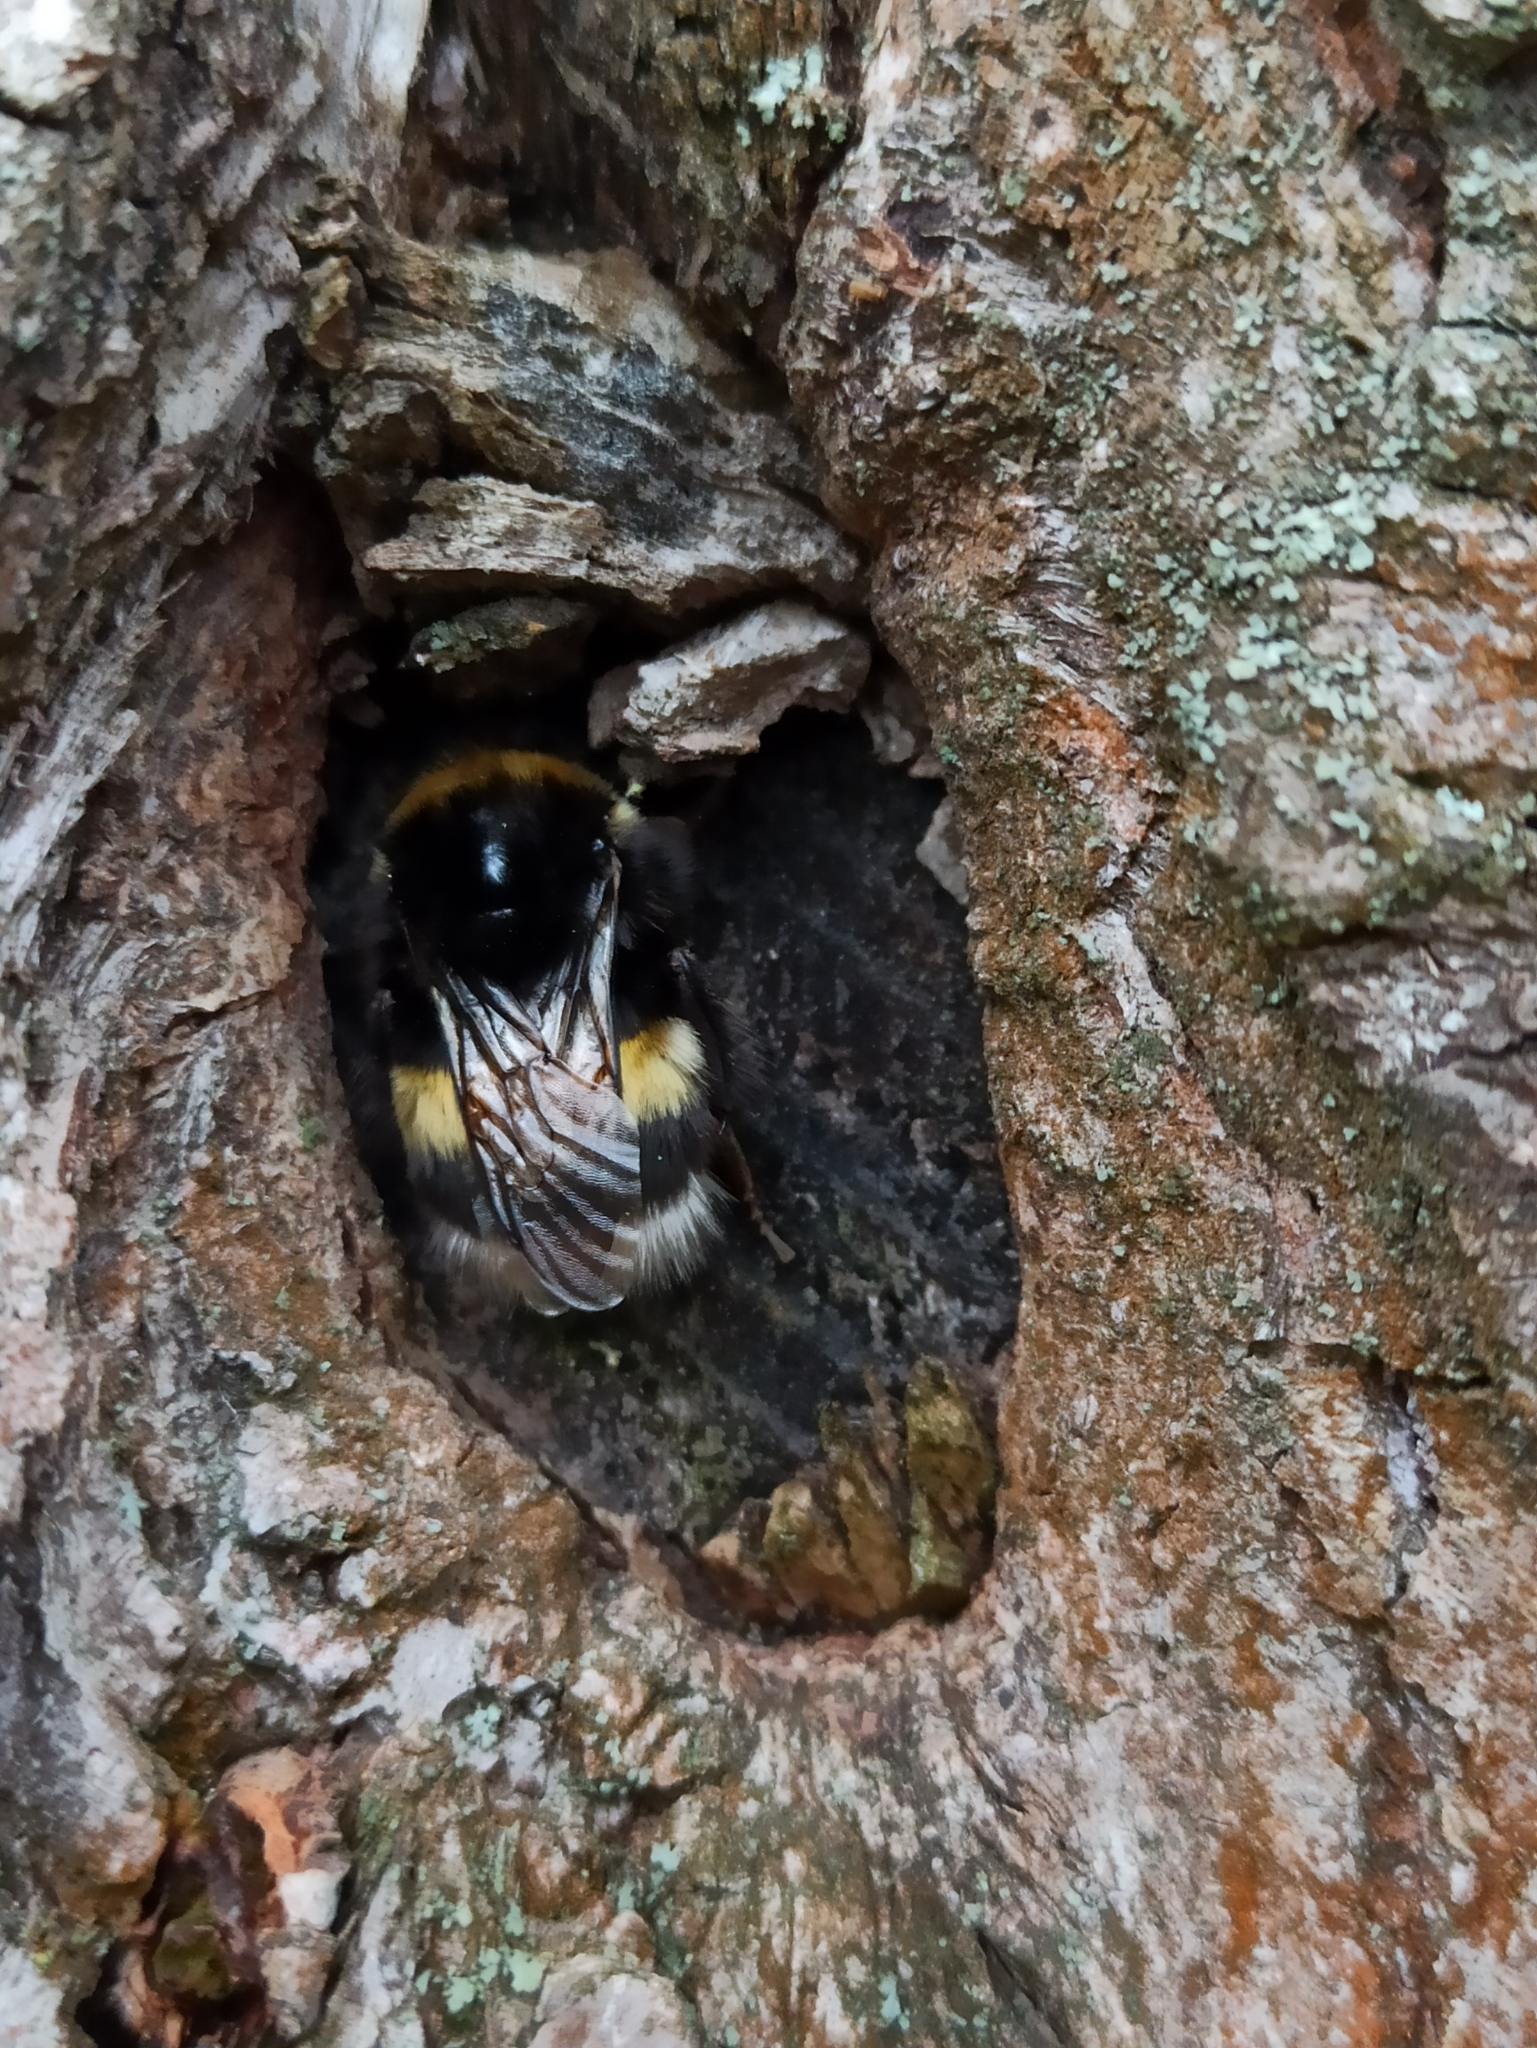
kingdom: Animalia
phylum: Arthropoda
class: Insecta
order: Hymenoptera
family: Apidae
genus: Bombus
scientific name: Bombus
